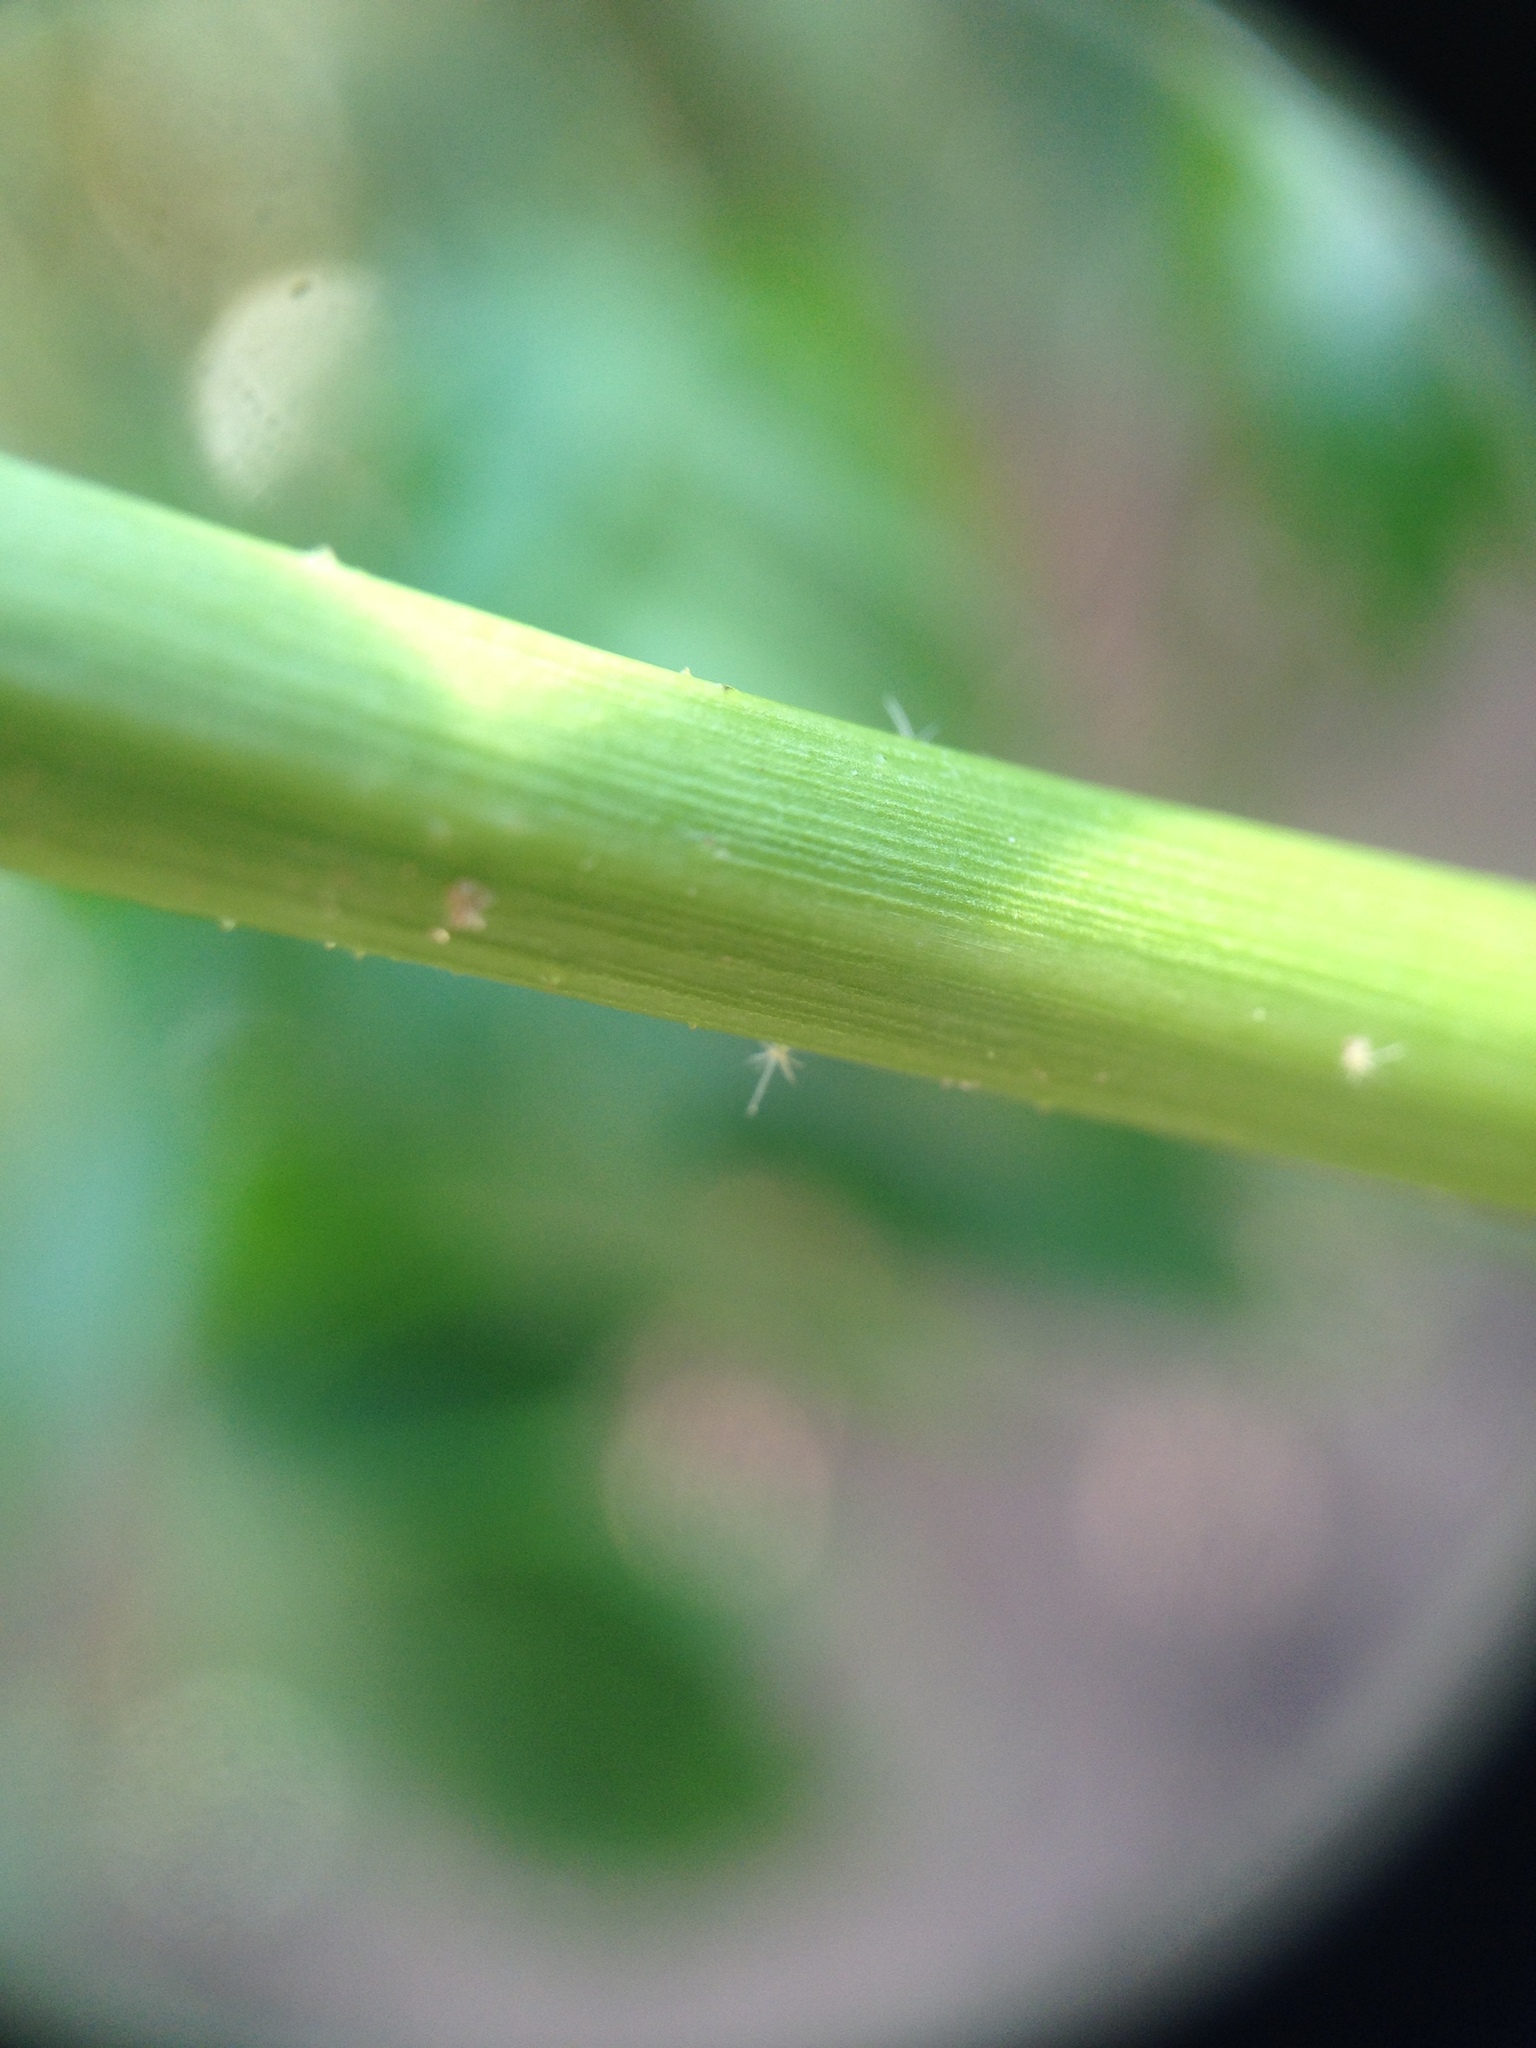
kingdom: Plantae
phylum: Tracheophyta
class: Magnoliopsida
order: Malpighiales
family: Euphorbiaceae
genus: Astraea
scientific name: Astraea lobata
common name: Lobed croton
